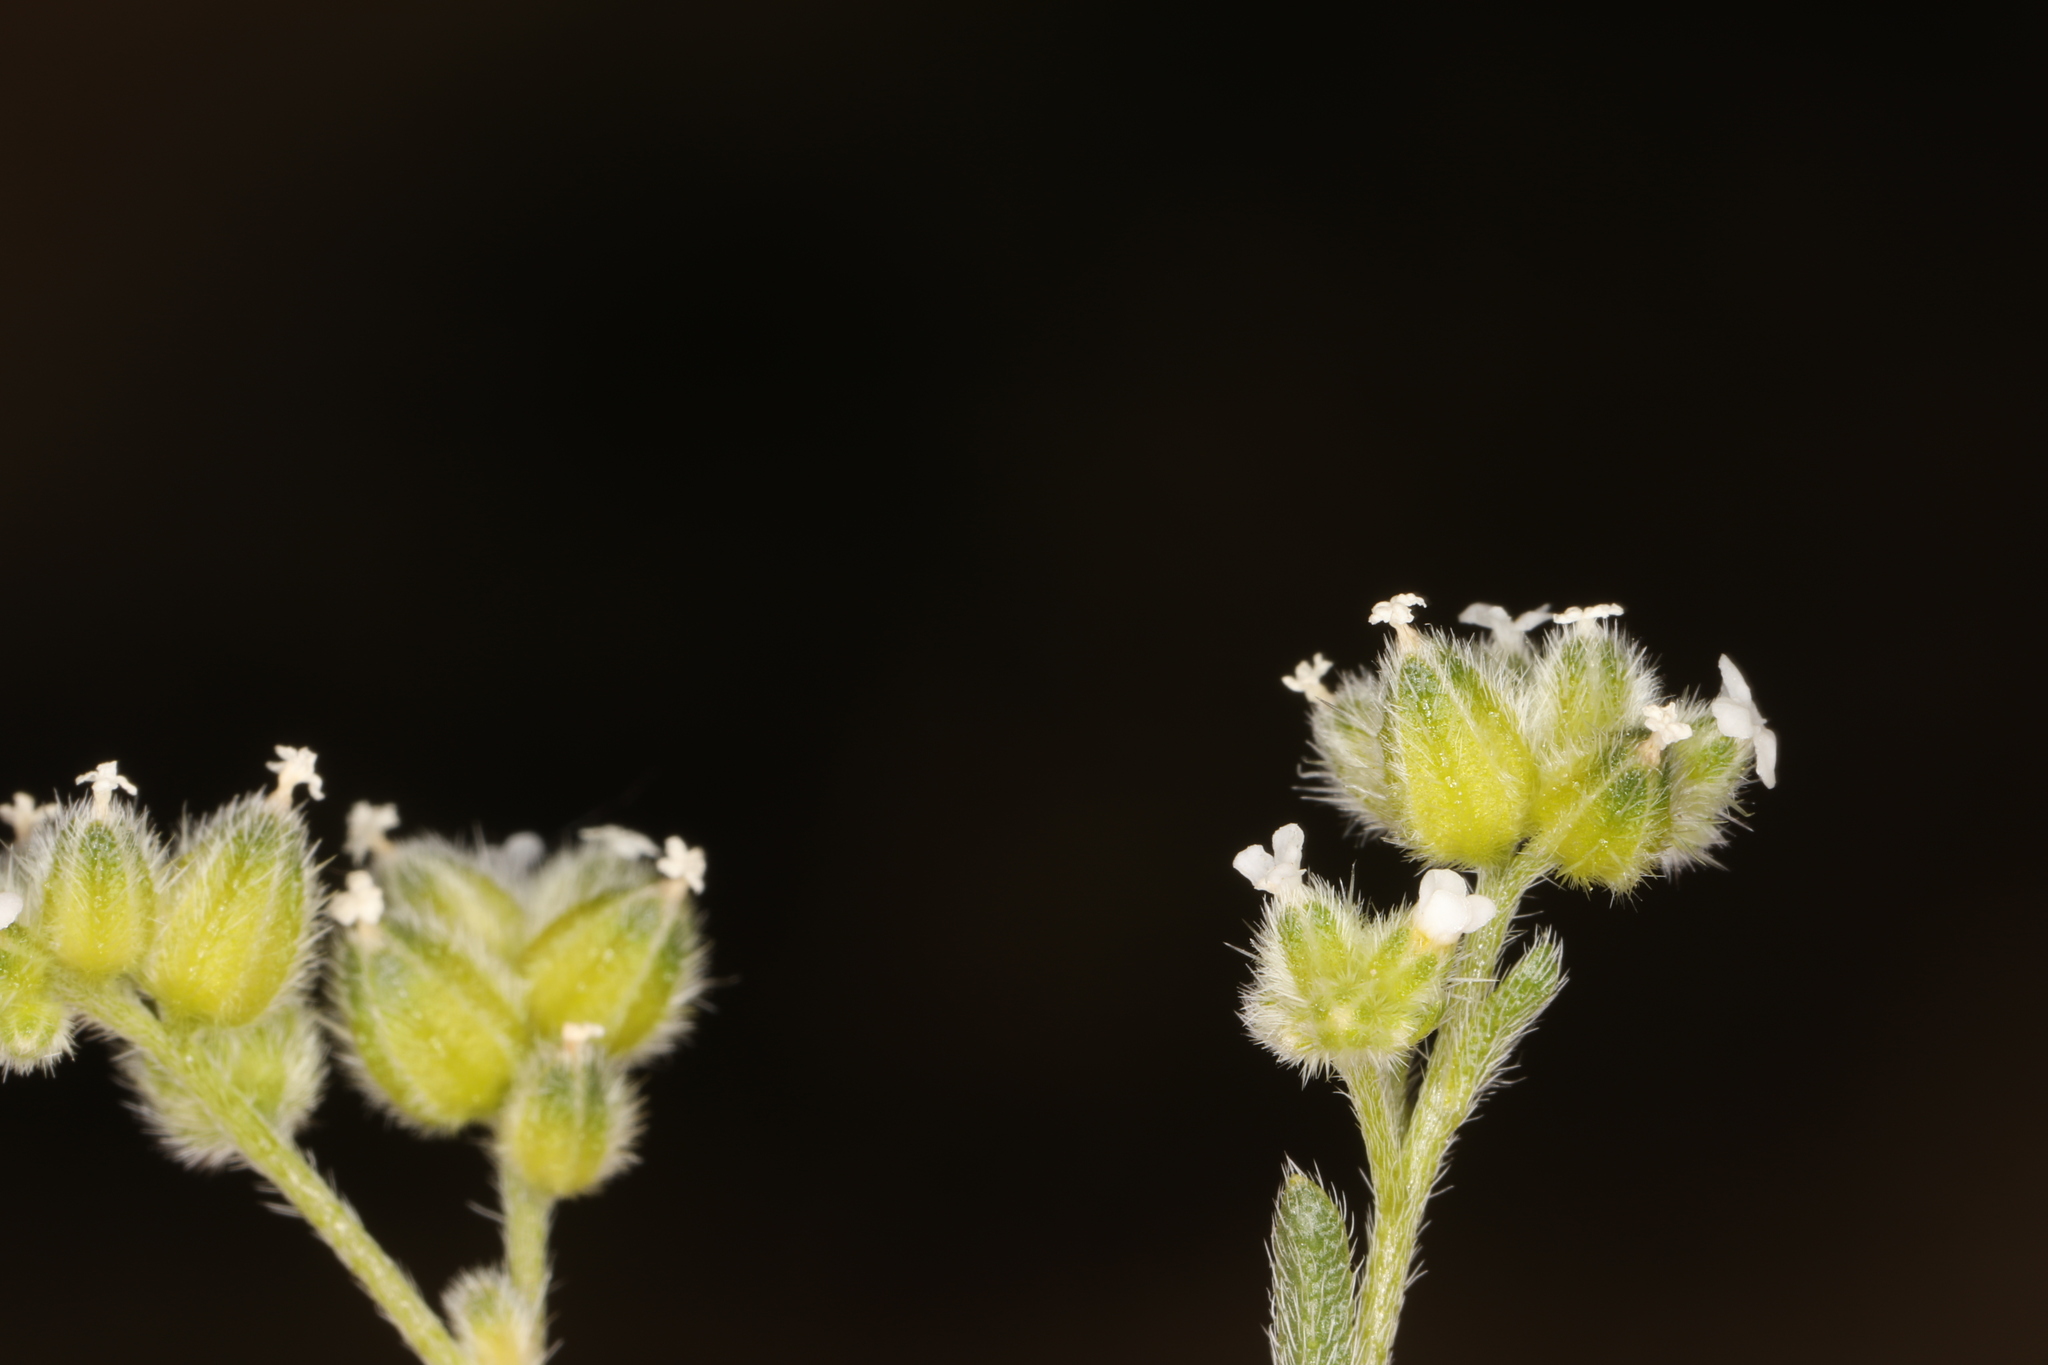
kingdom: Plantae
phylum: Tracheophyta
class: Magnoliopsida
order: Boraginales
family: Boraginaceae
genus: Cryptantha
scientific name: Cryptantha pterocarya
